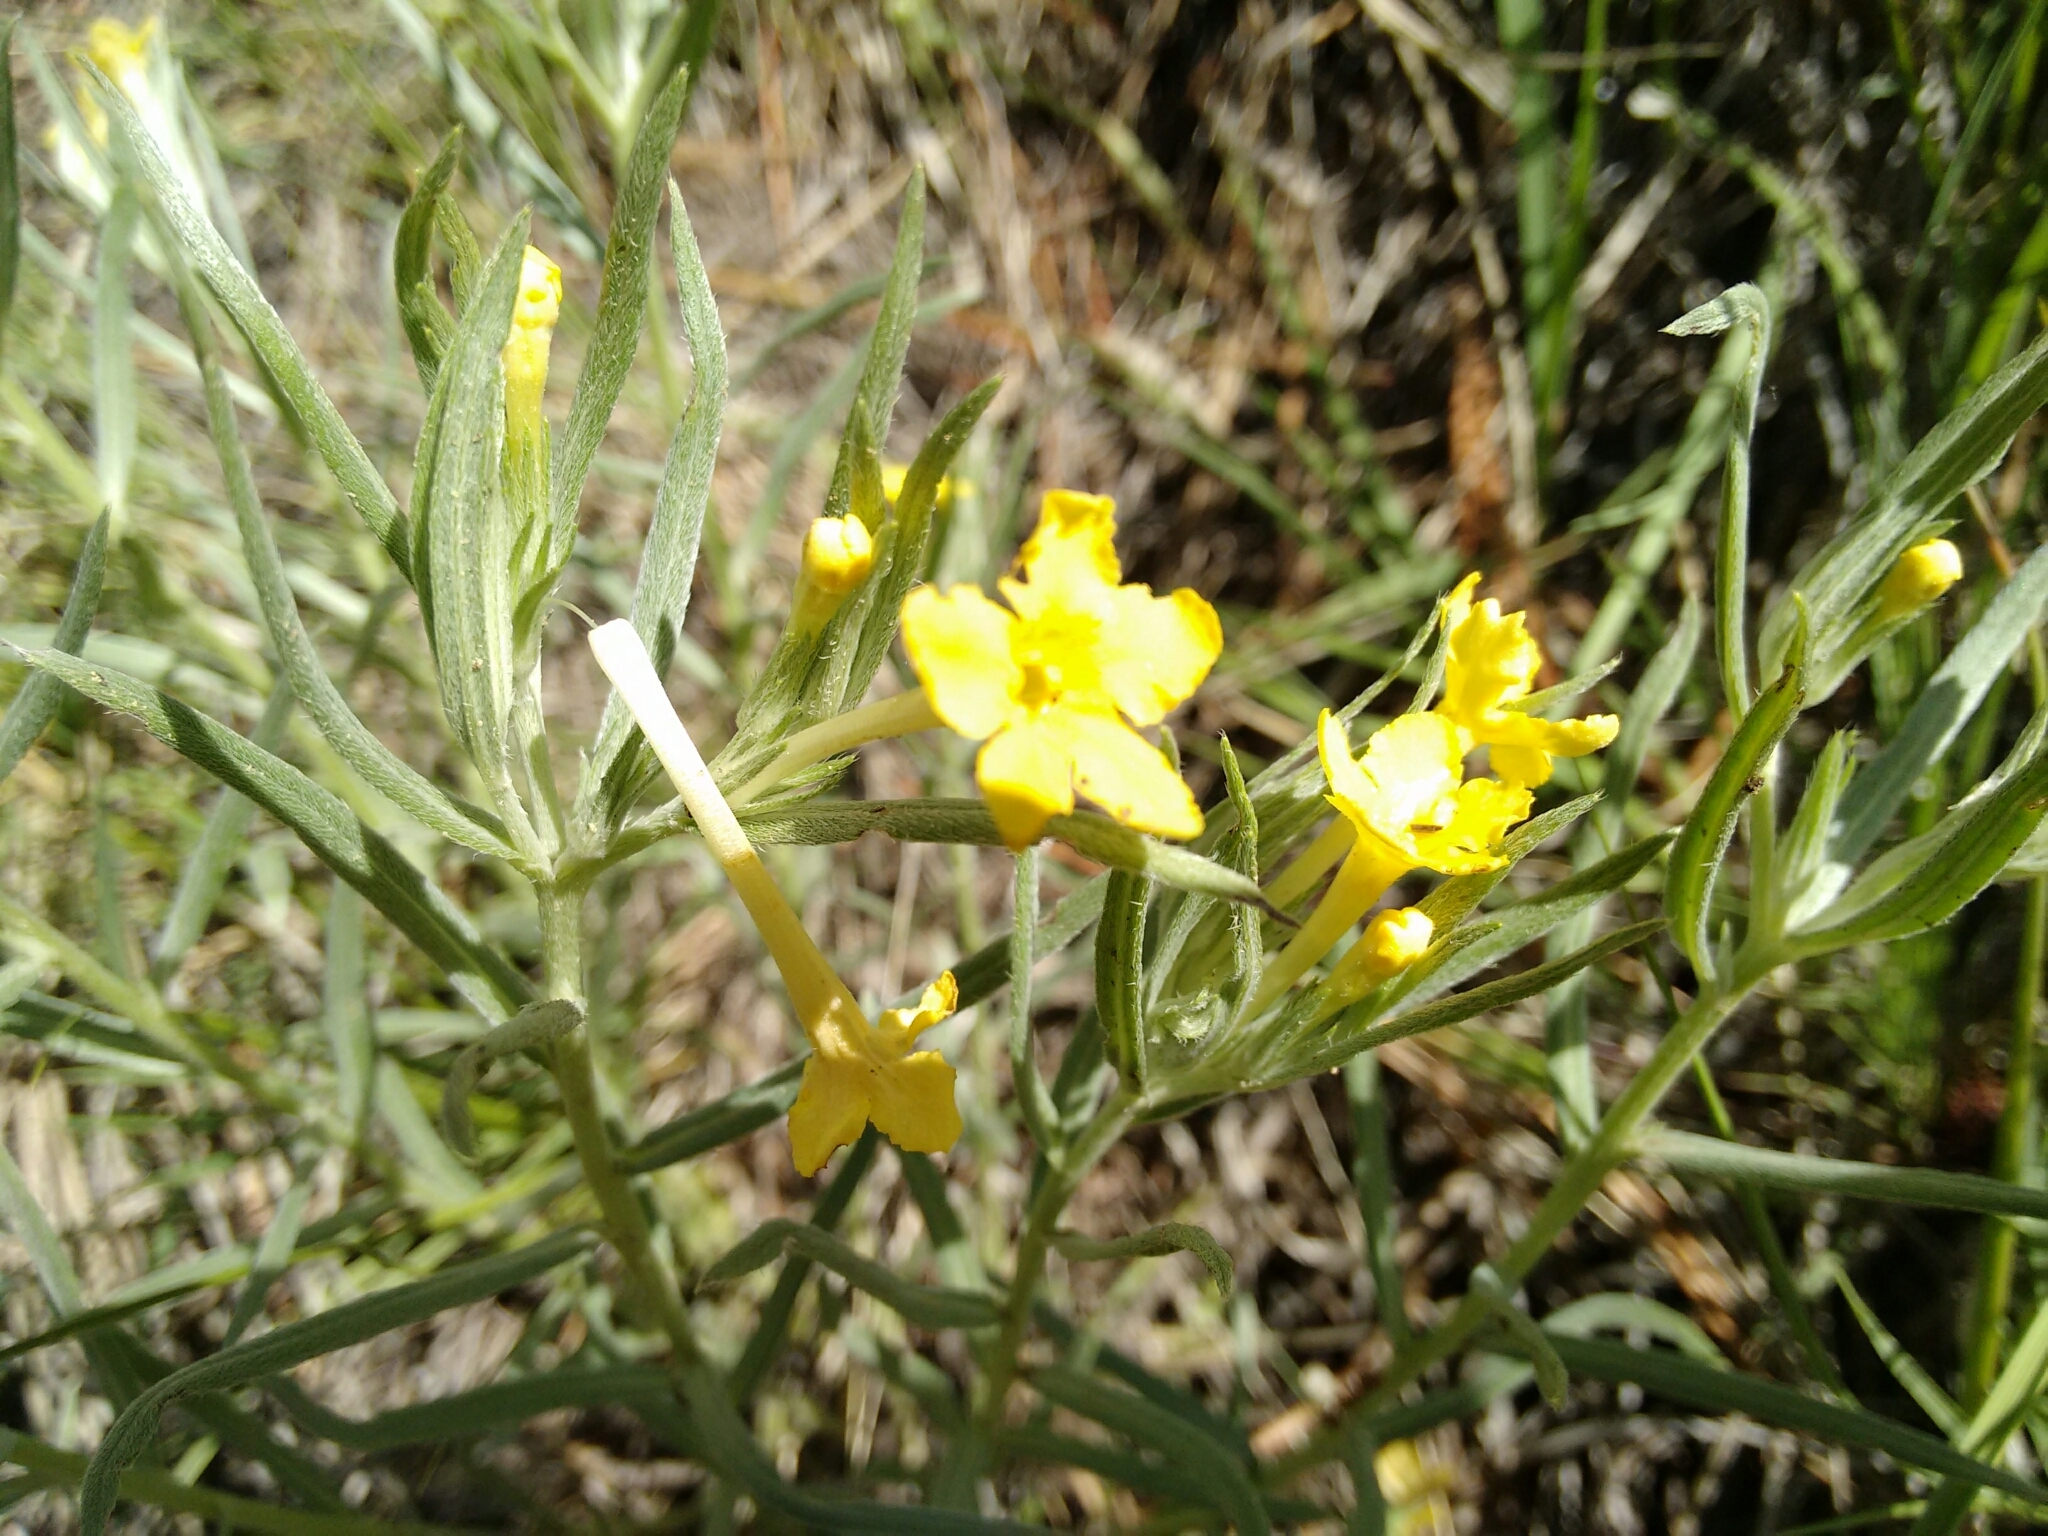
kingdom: Plantae
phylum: Tracheophyta
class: Magnoliopsida
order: Boraginales
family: Boraginaceae
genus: Lithospermum
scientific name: Lithospermum incisum
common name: Fringed gromwell
